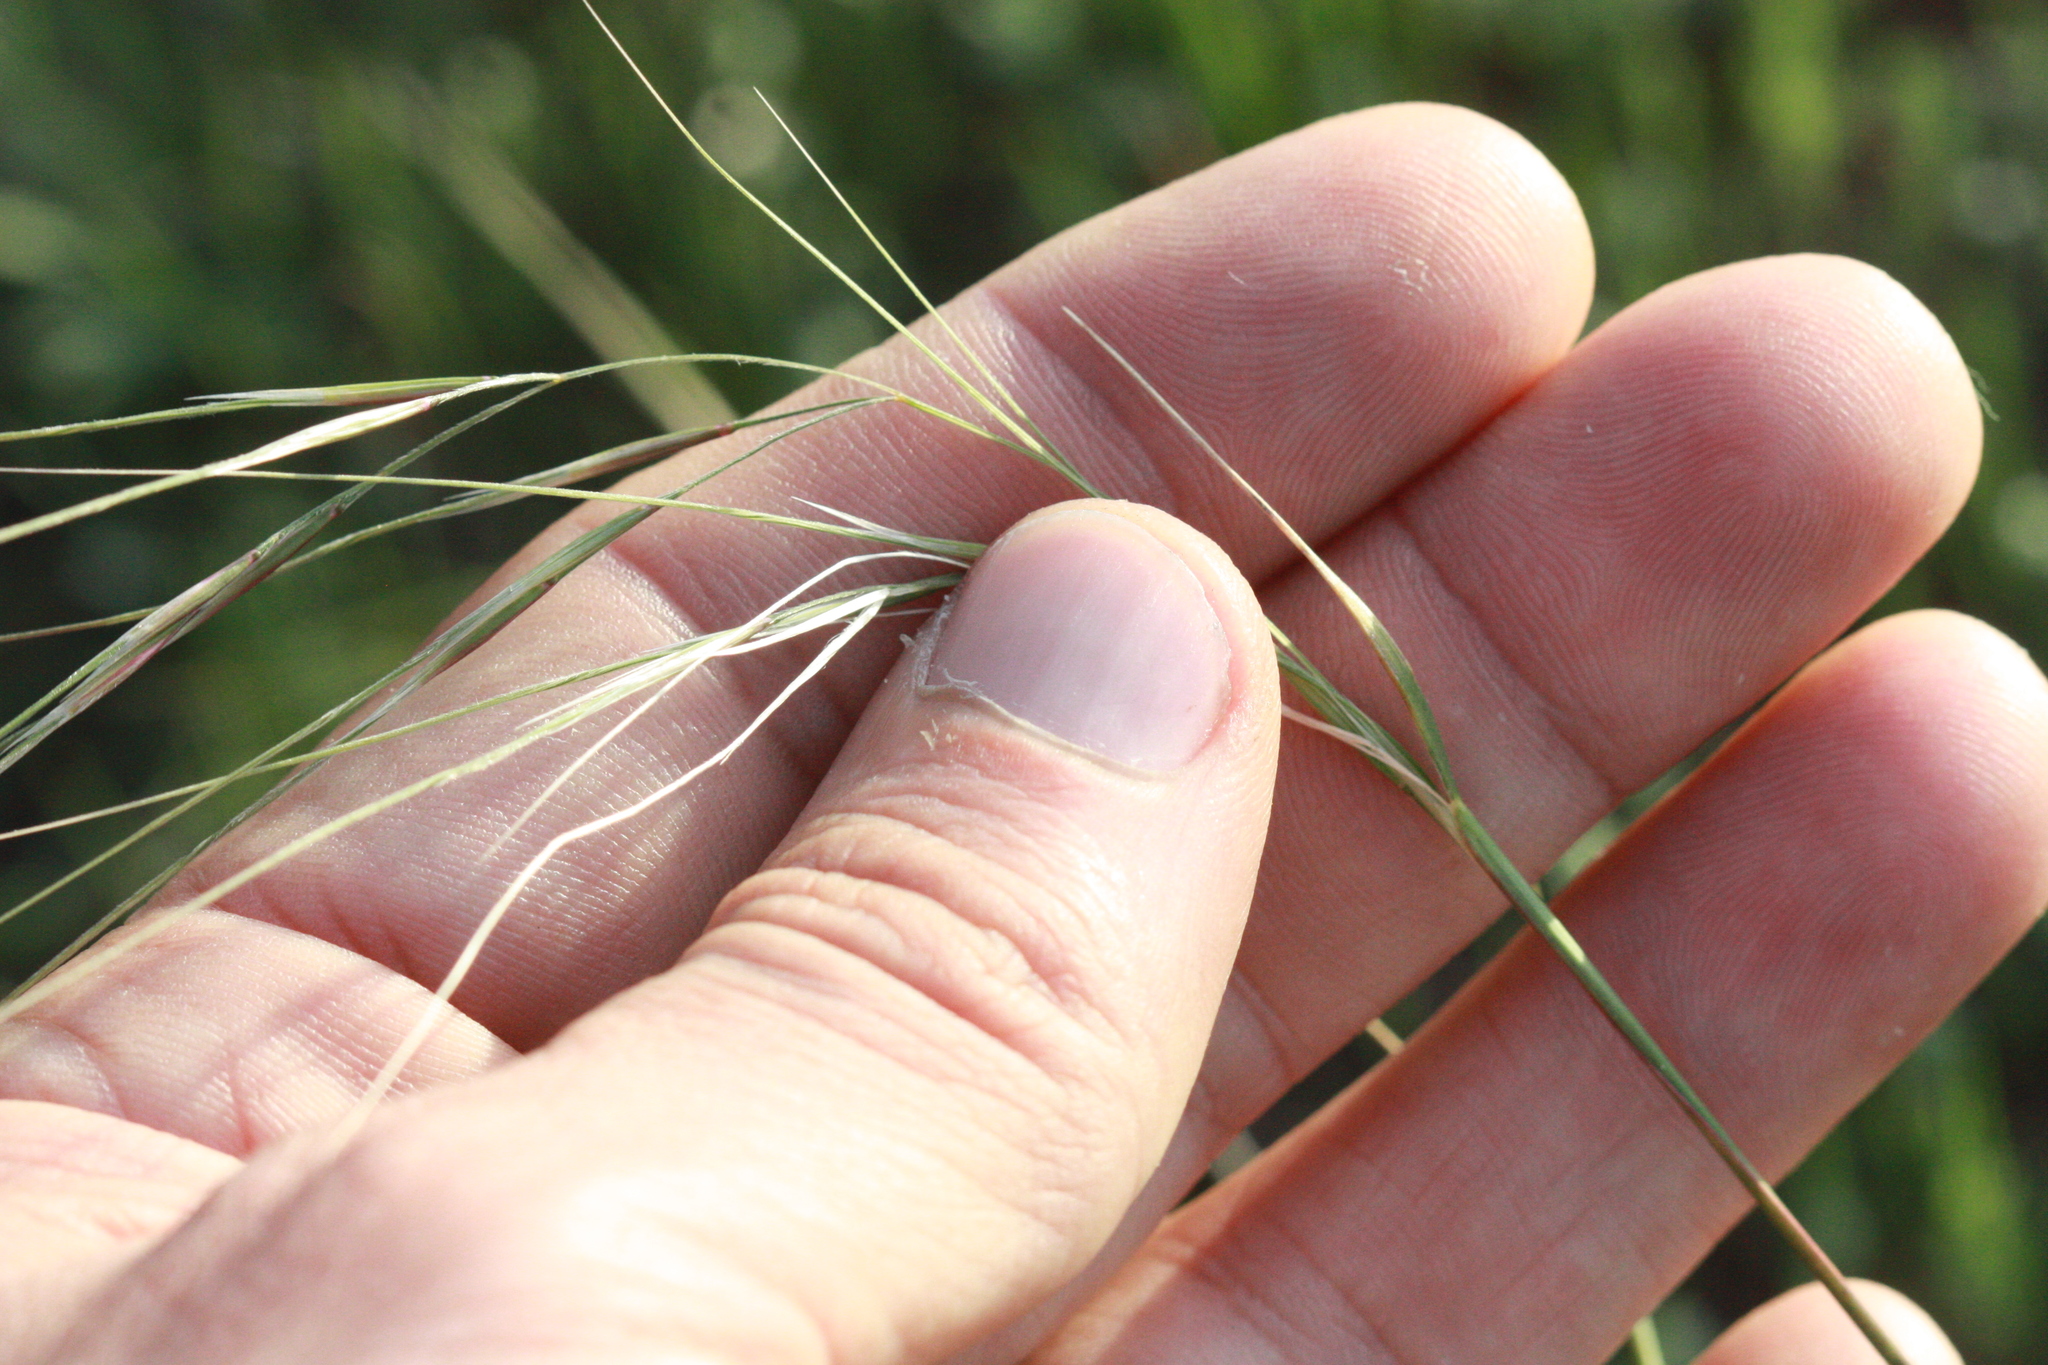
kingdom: Plantae
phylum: Tracheophyta
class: Liliopsida
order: Poales
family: Poaceae
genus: Nassella
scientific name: Nassella pulchra
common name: Purple needlegrass
